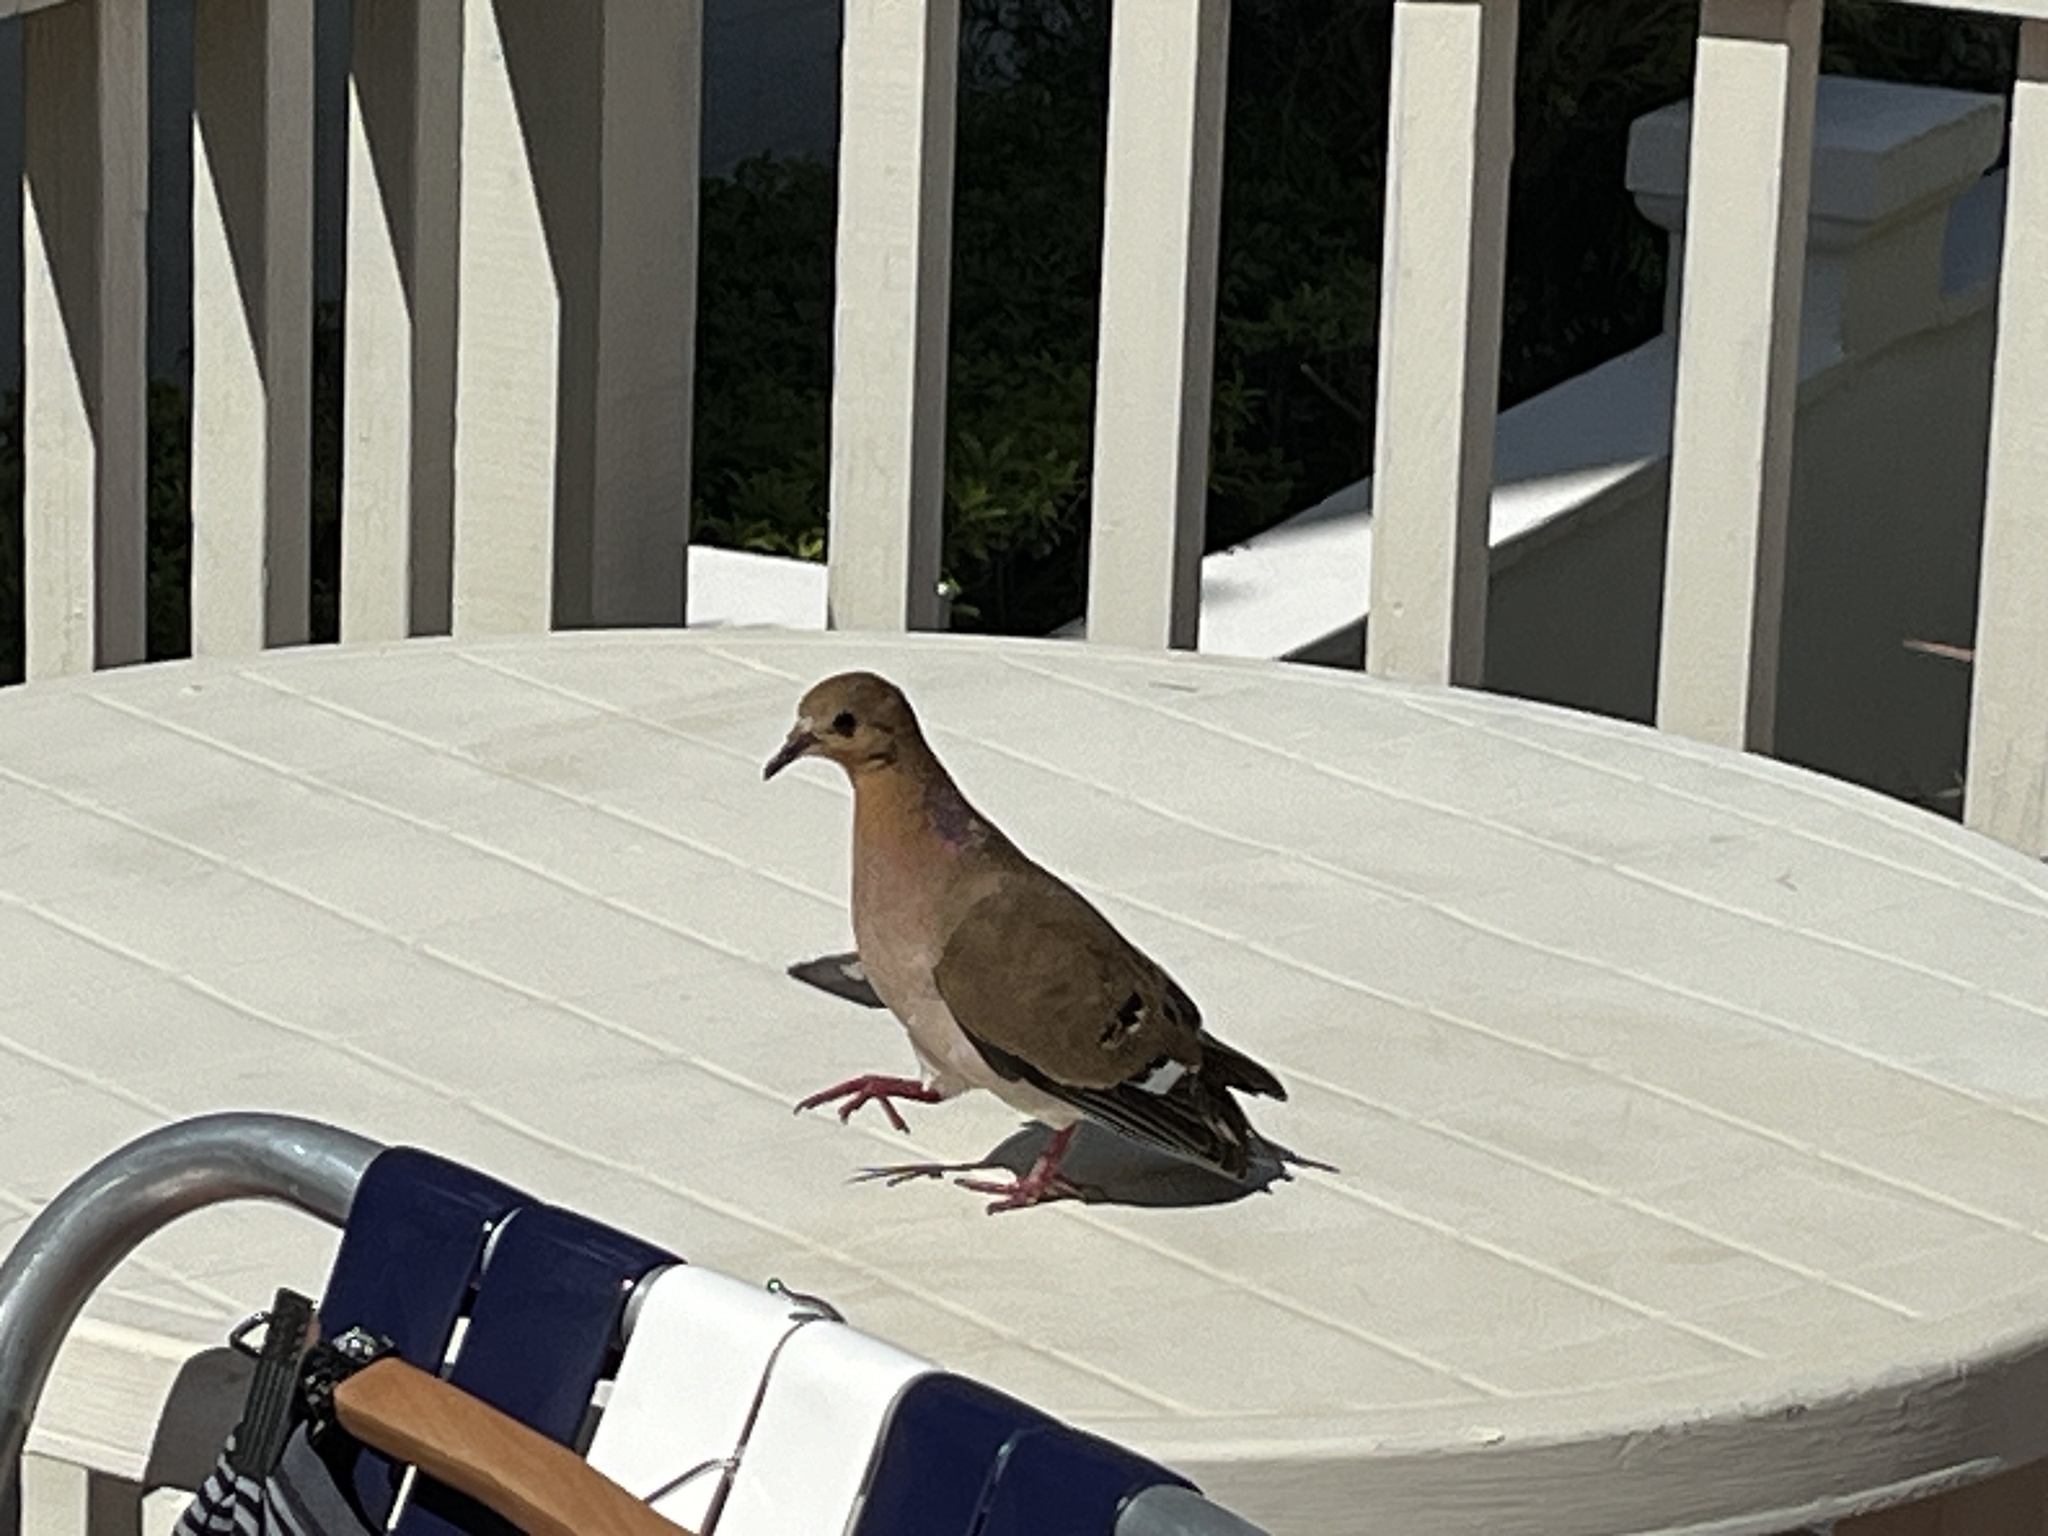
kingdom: Animalia
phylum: Chordata
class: Aves
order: Columbiformes
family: Columbidae
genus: Zenaida
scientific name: Zenaida aurita
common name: Zenaida dove
